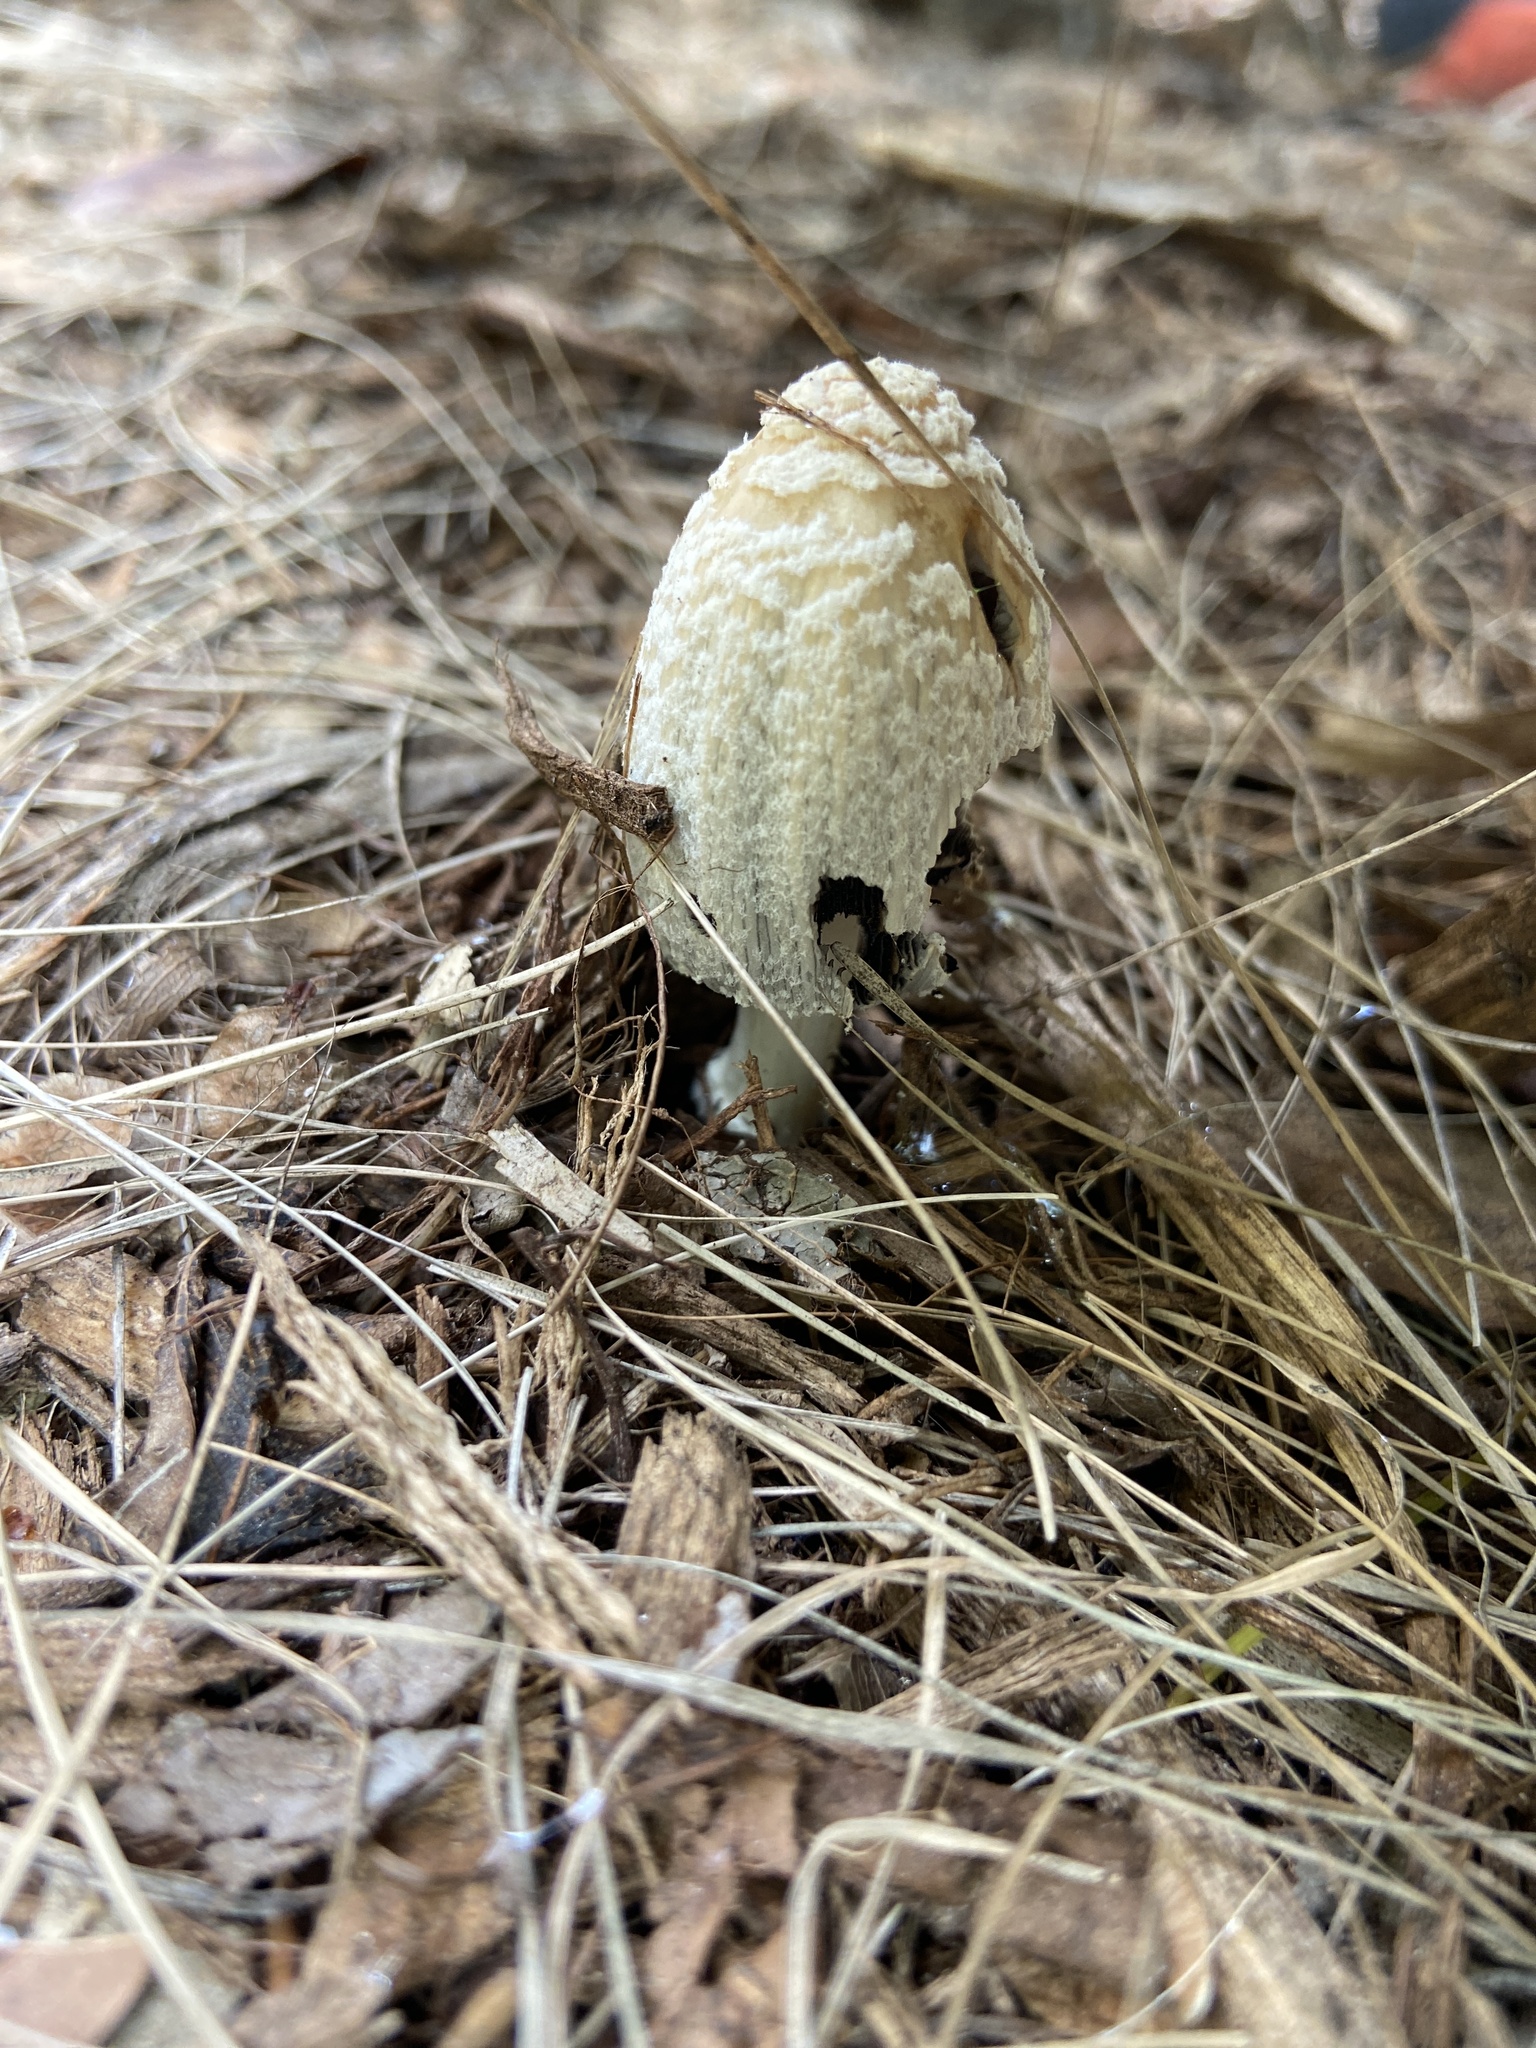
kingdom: Fungi
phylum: Basidiomycota
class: Agaricomycetes
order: Agaricales
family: Psathyrellaceae
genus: Coprinellus
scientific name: Coprinellus flocculosus
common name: Flocculose inkcap
